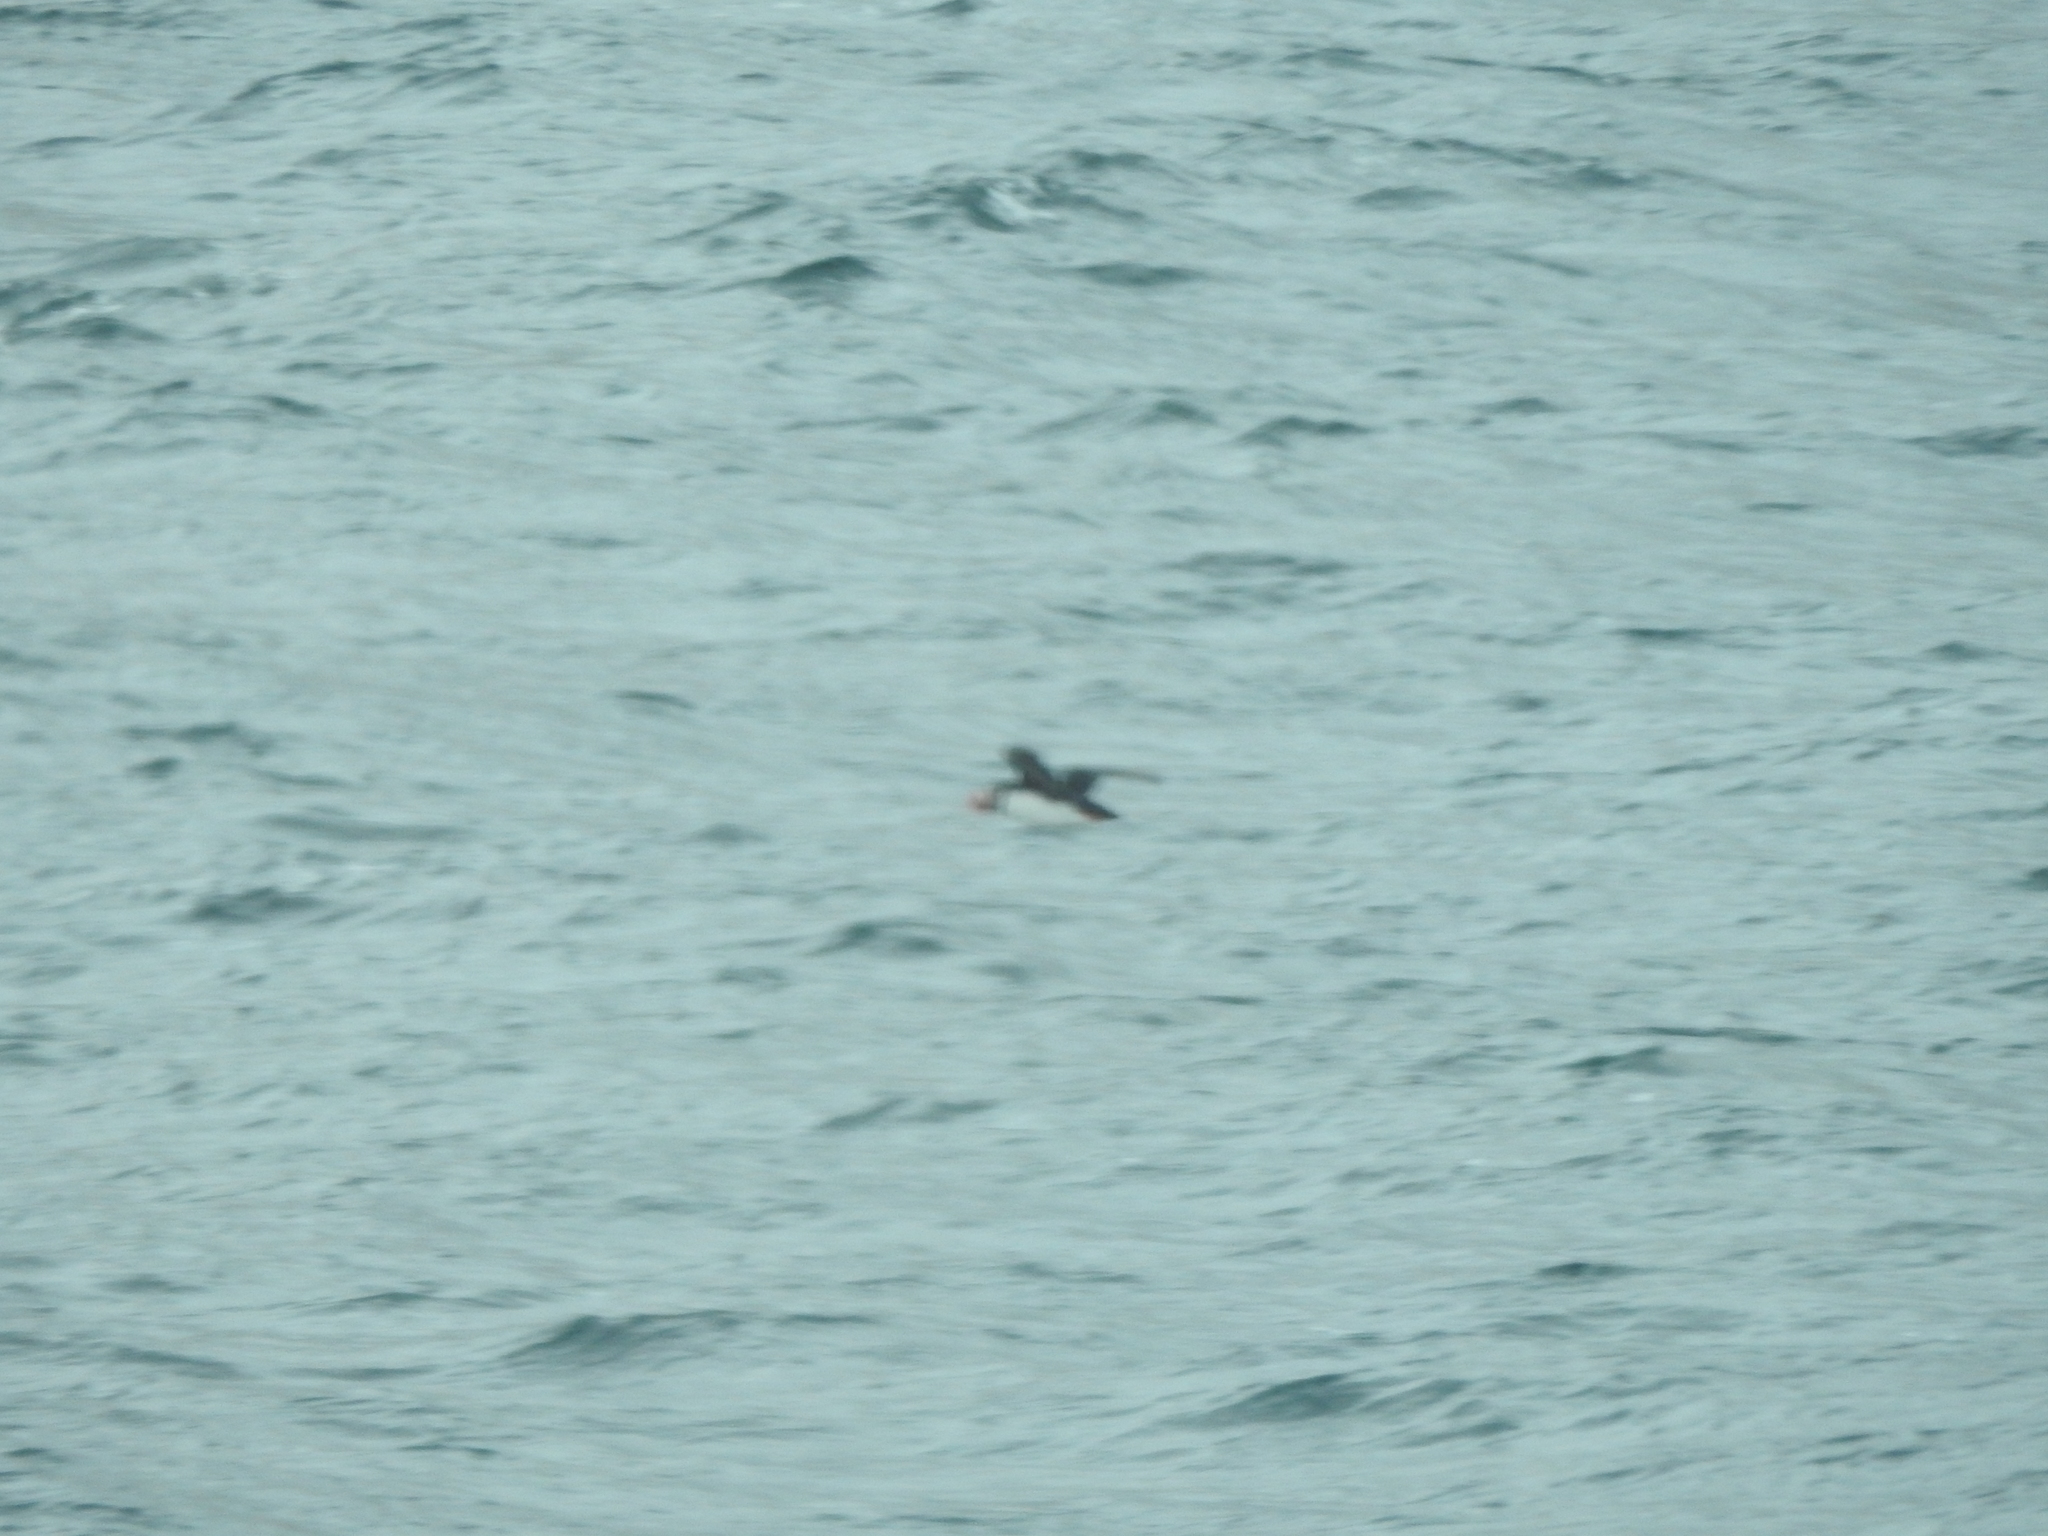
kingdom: Animalia
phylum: Chordata
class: Aves
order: Charadriiformes
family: Alcidae
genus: Fratercula
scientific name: Fratercula arctica
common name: Atlantic puffin
